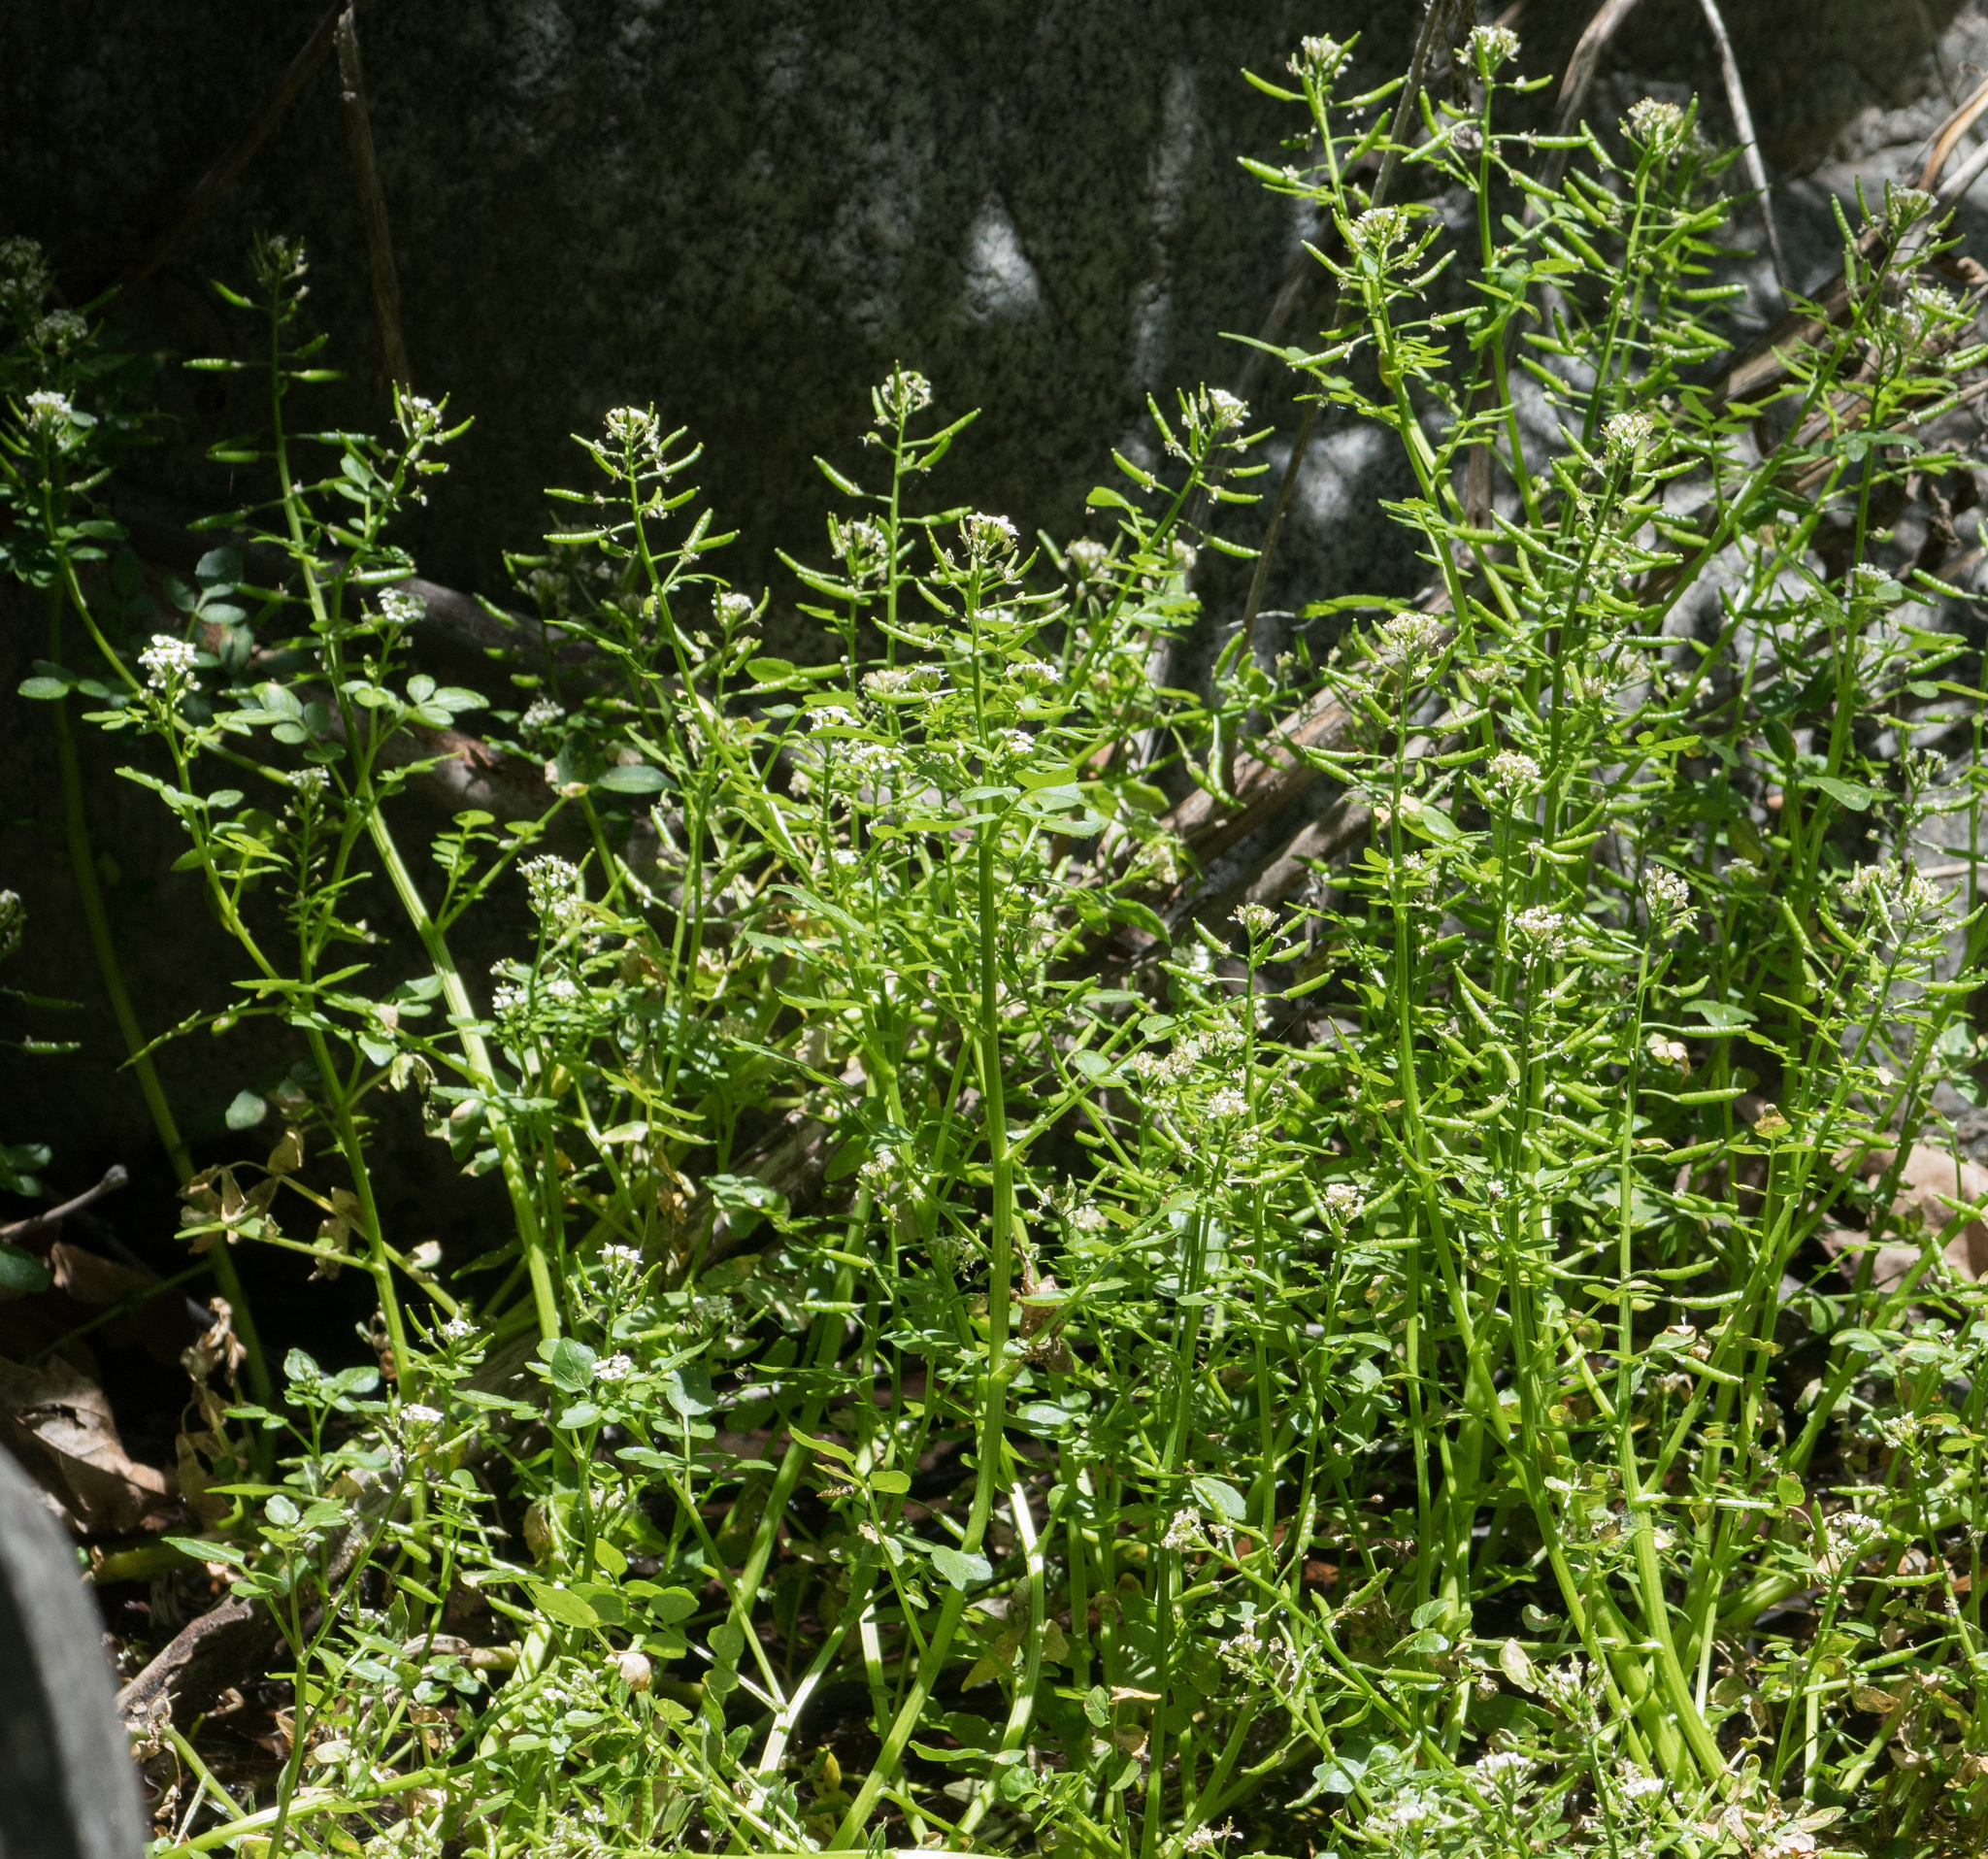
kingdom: Plantae
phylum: Tracheophyta
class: Magnoliopsida
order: Brassicales
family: Brassicaceae
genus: Nasturtium
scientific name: Nasturtium officinale
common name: Watercress
